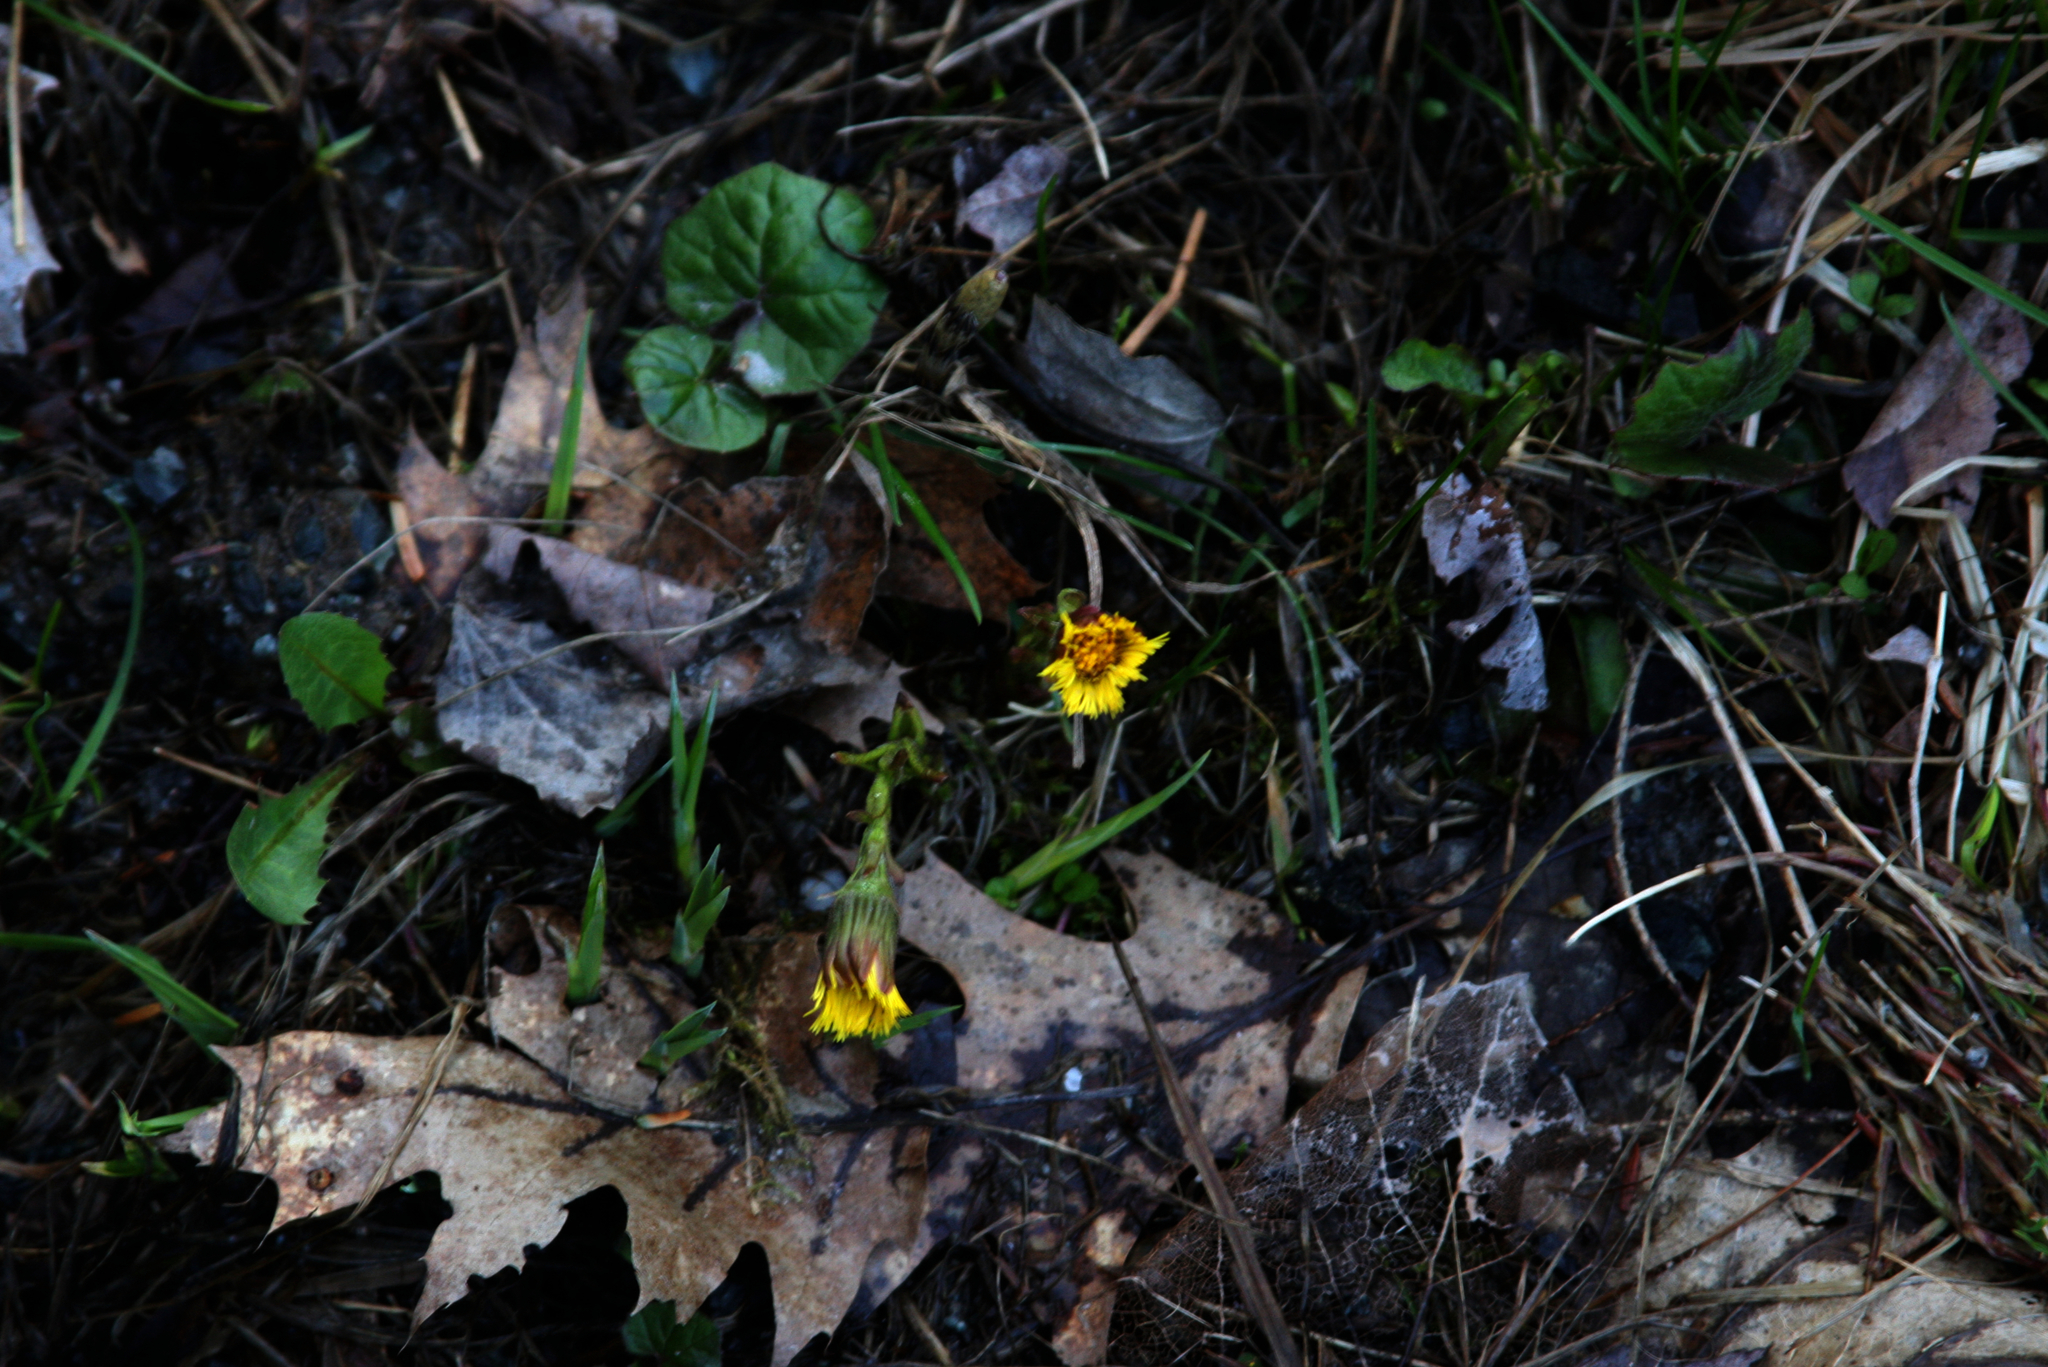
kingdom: Plantae
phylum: Tracheophyta
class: Magnoliopsida
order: Asterales
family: Asteraceae
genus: Tussilago
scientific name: Tussilago farfara
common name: Coltsfoot
